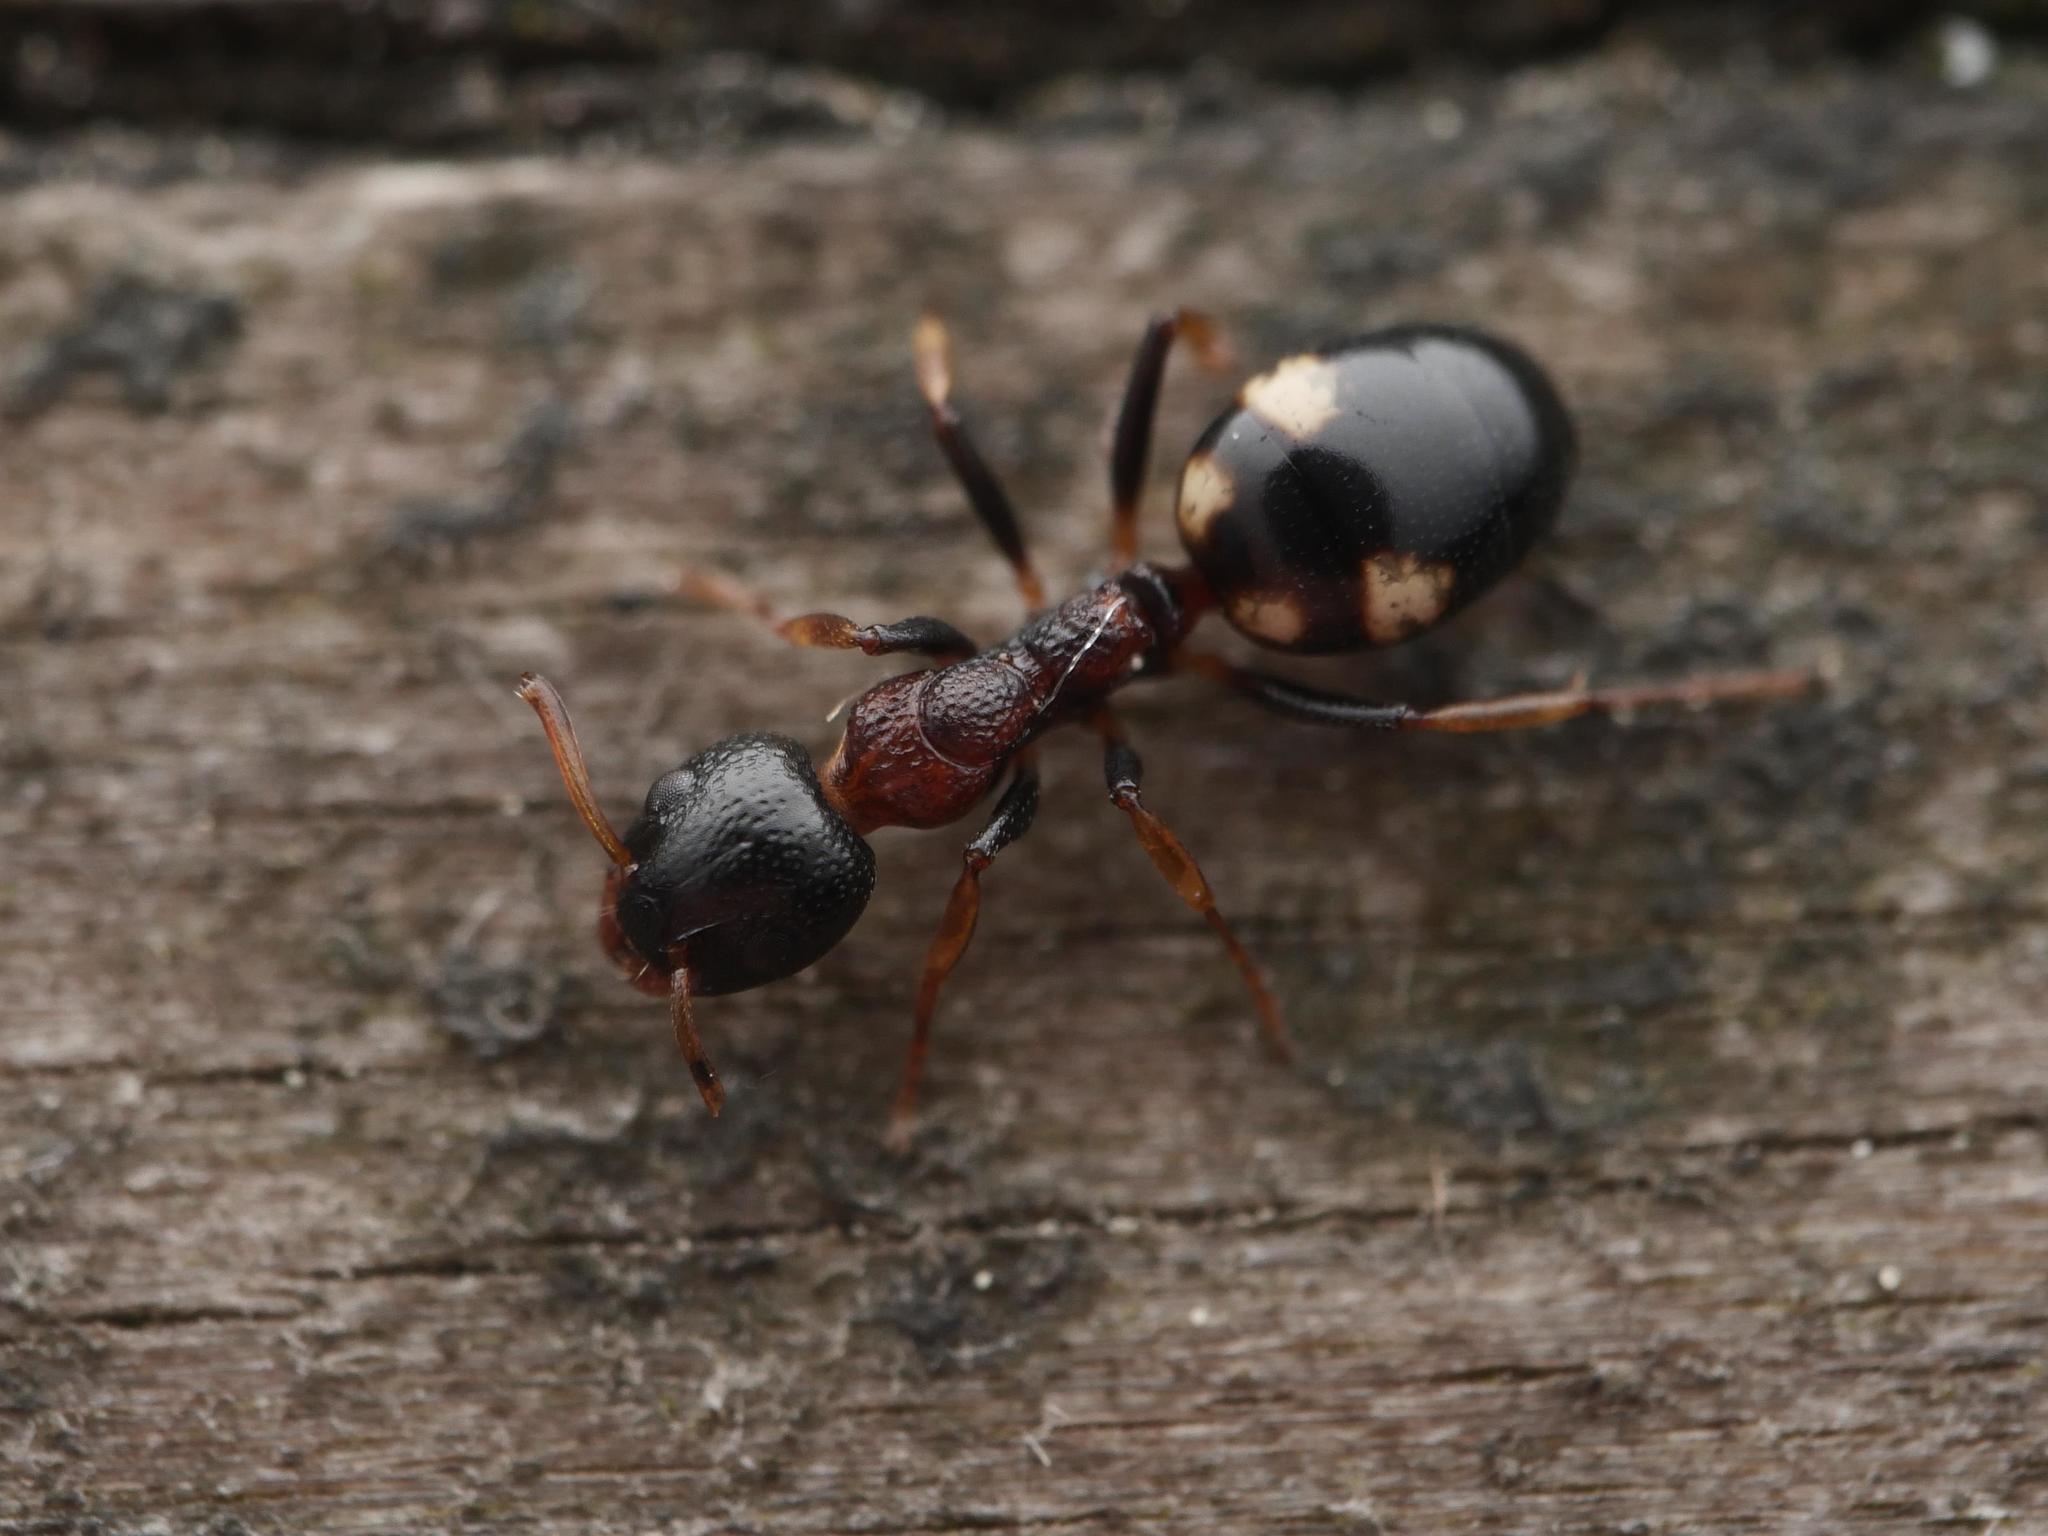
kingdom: Animalia
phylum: Arthropoda
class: Insecta
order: Hymenoptera
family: Formicidae
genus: Dolichoderus
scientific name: Dolichoderus quadripunctatus
